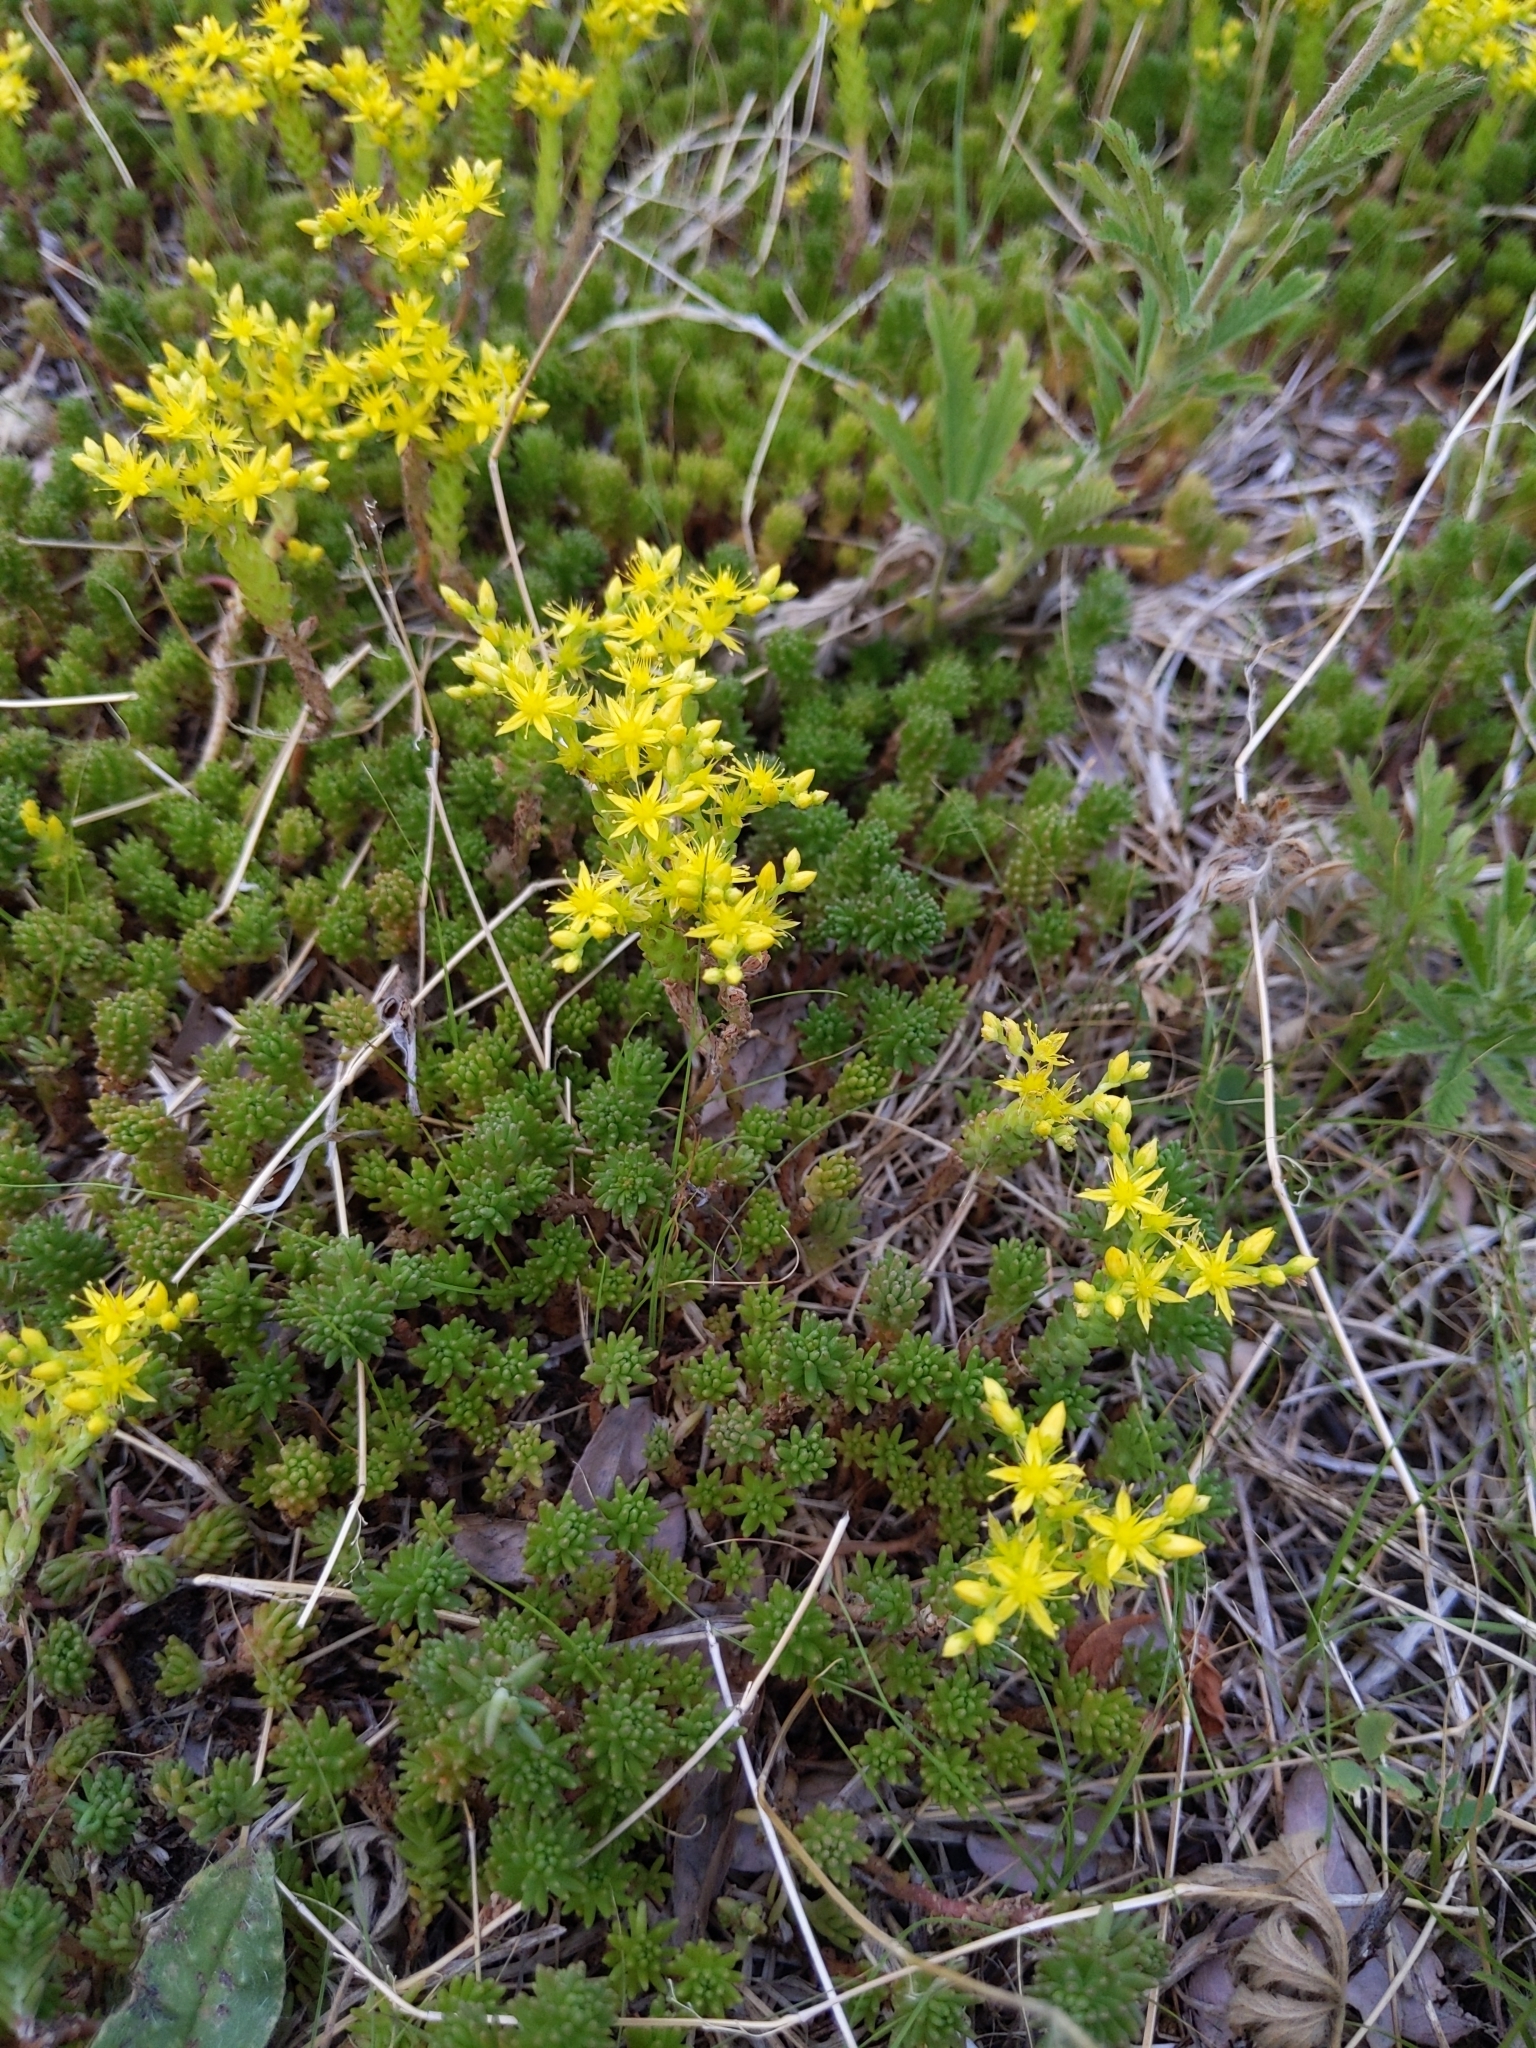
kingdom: Plantae
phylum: Tracheophyta
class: Magnoliopsida
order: Saxifragales
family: Crassulaceae
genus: Sedum
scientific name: Sedum sexangulare
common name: Tasteless stonecrop
